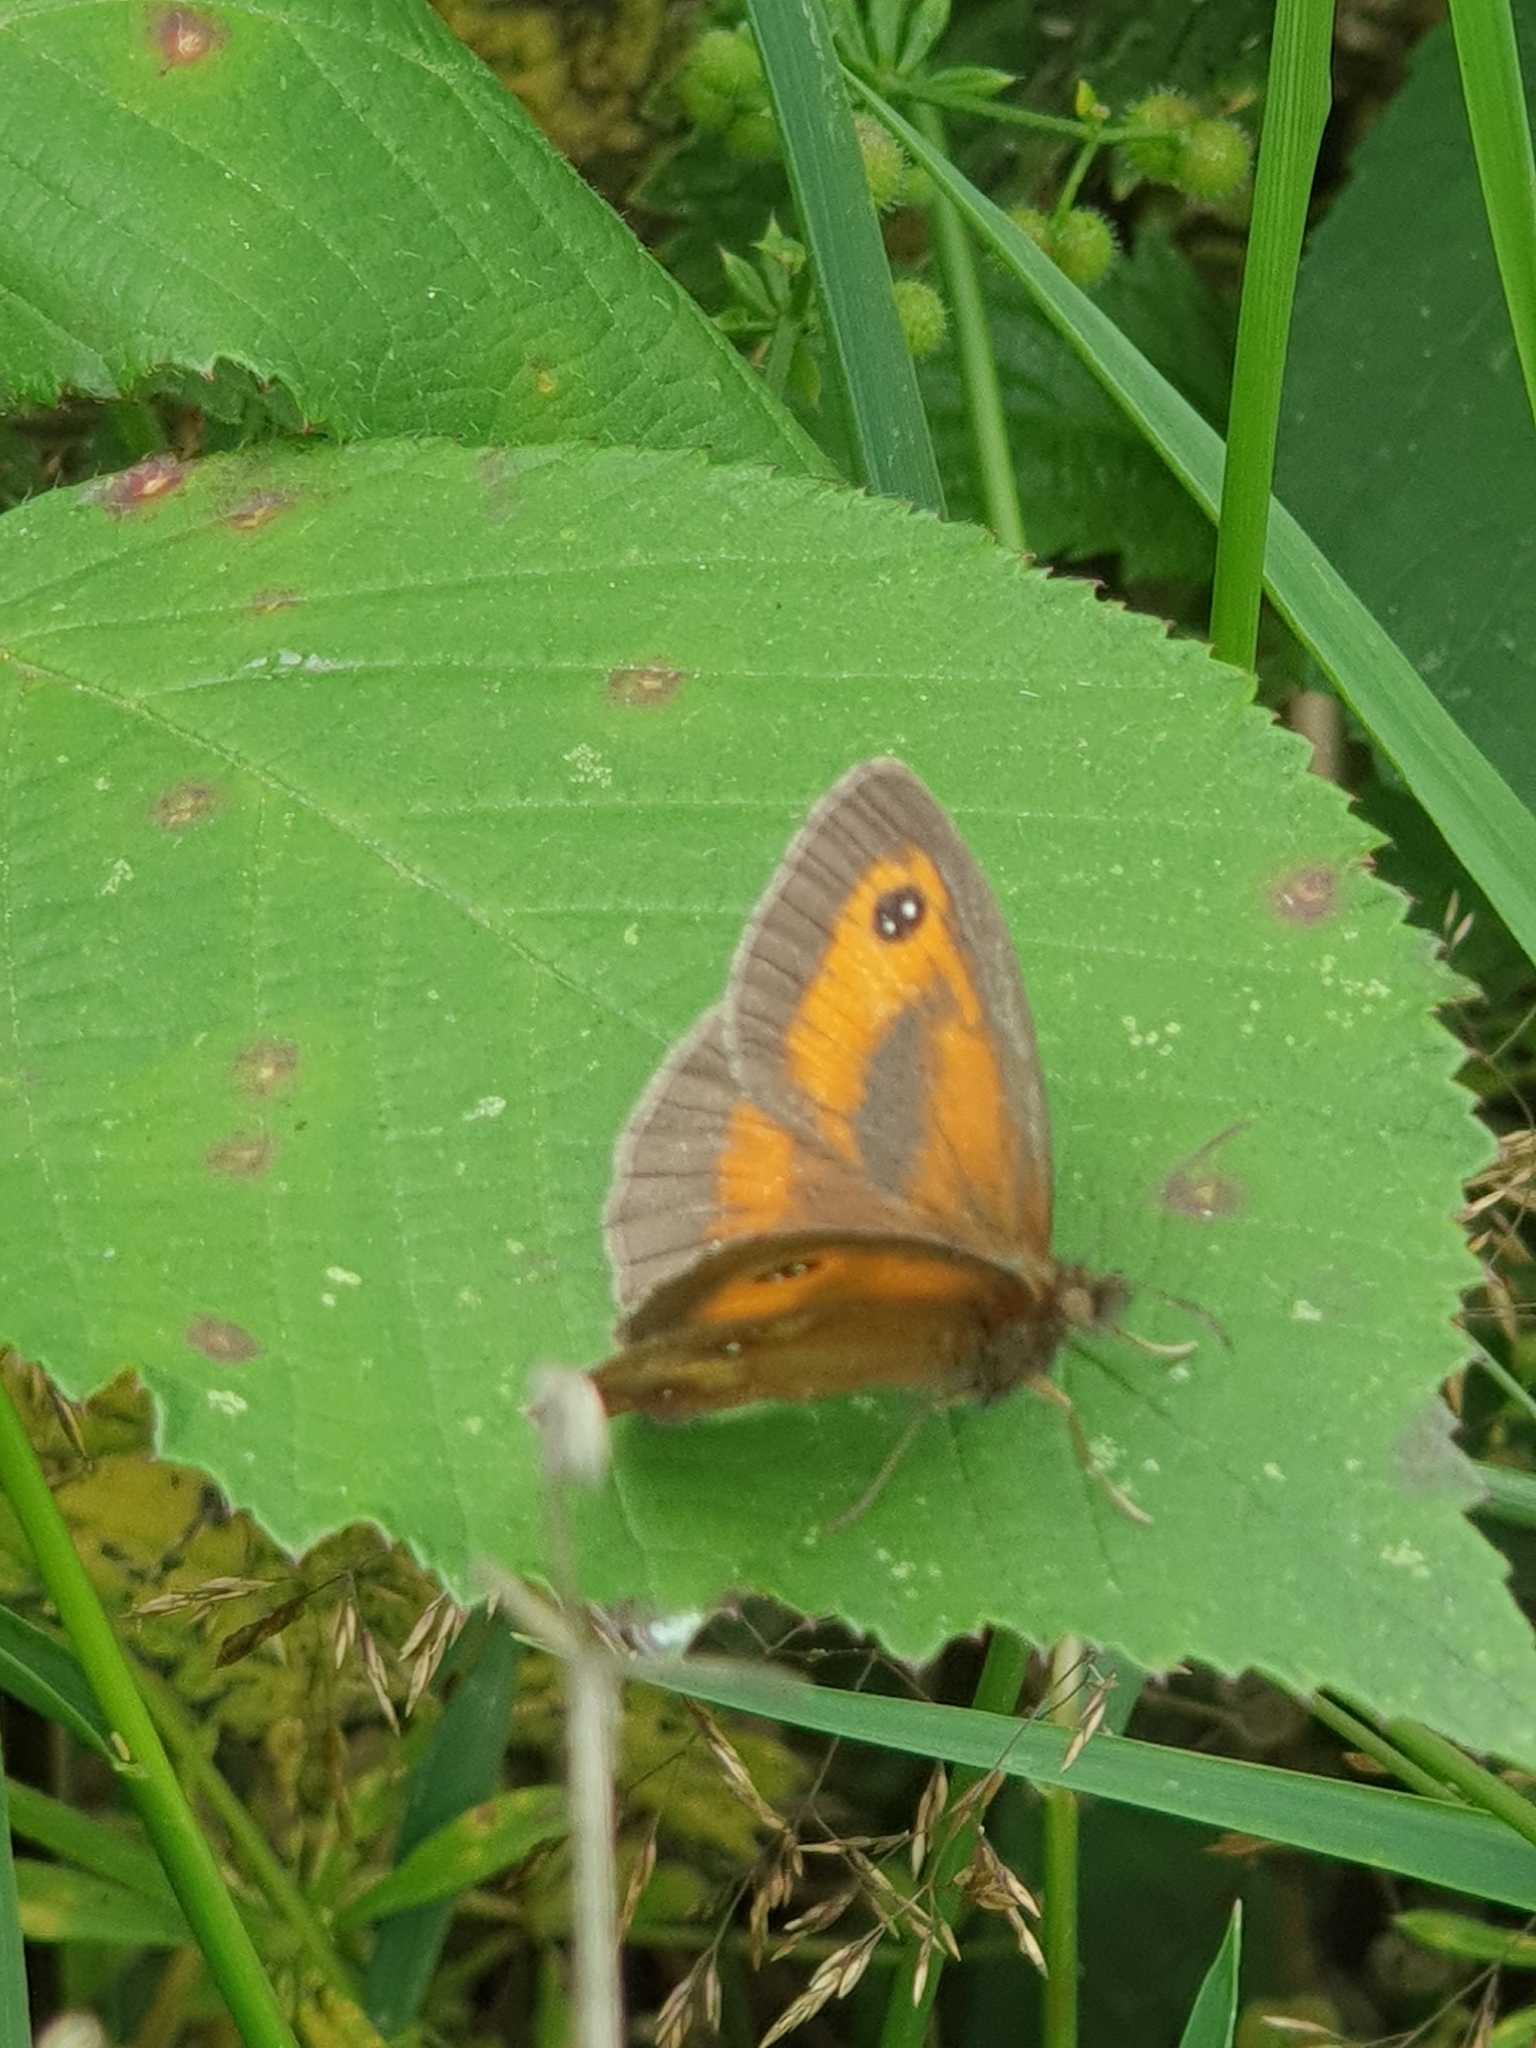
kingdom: Animalia
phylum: Arthropoda
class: Insecta
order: Lepidoptera
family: Nymphalidae
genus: Pyronia
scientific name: Pyronia tithonus
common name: Gatekeeper
